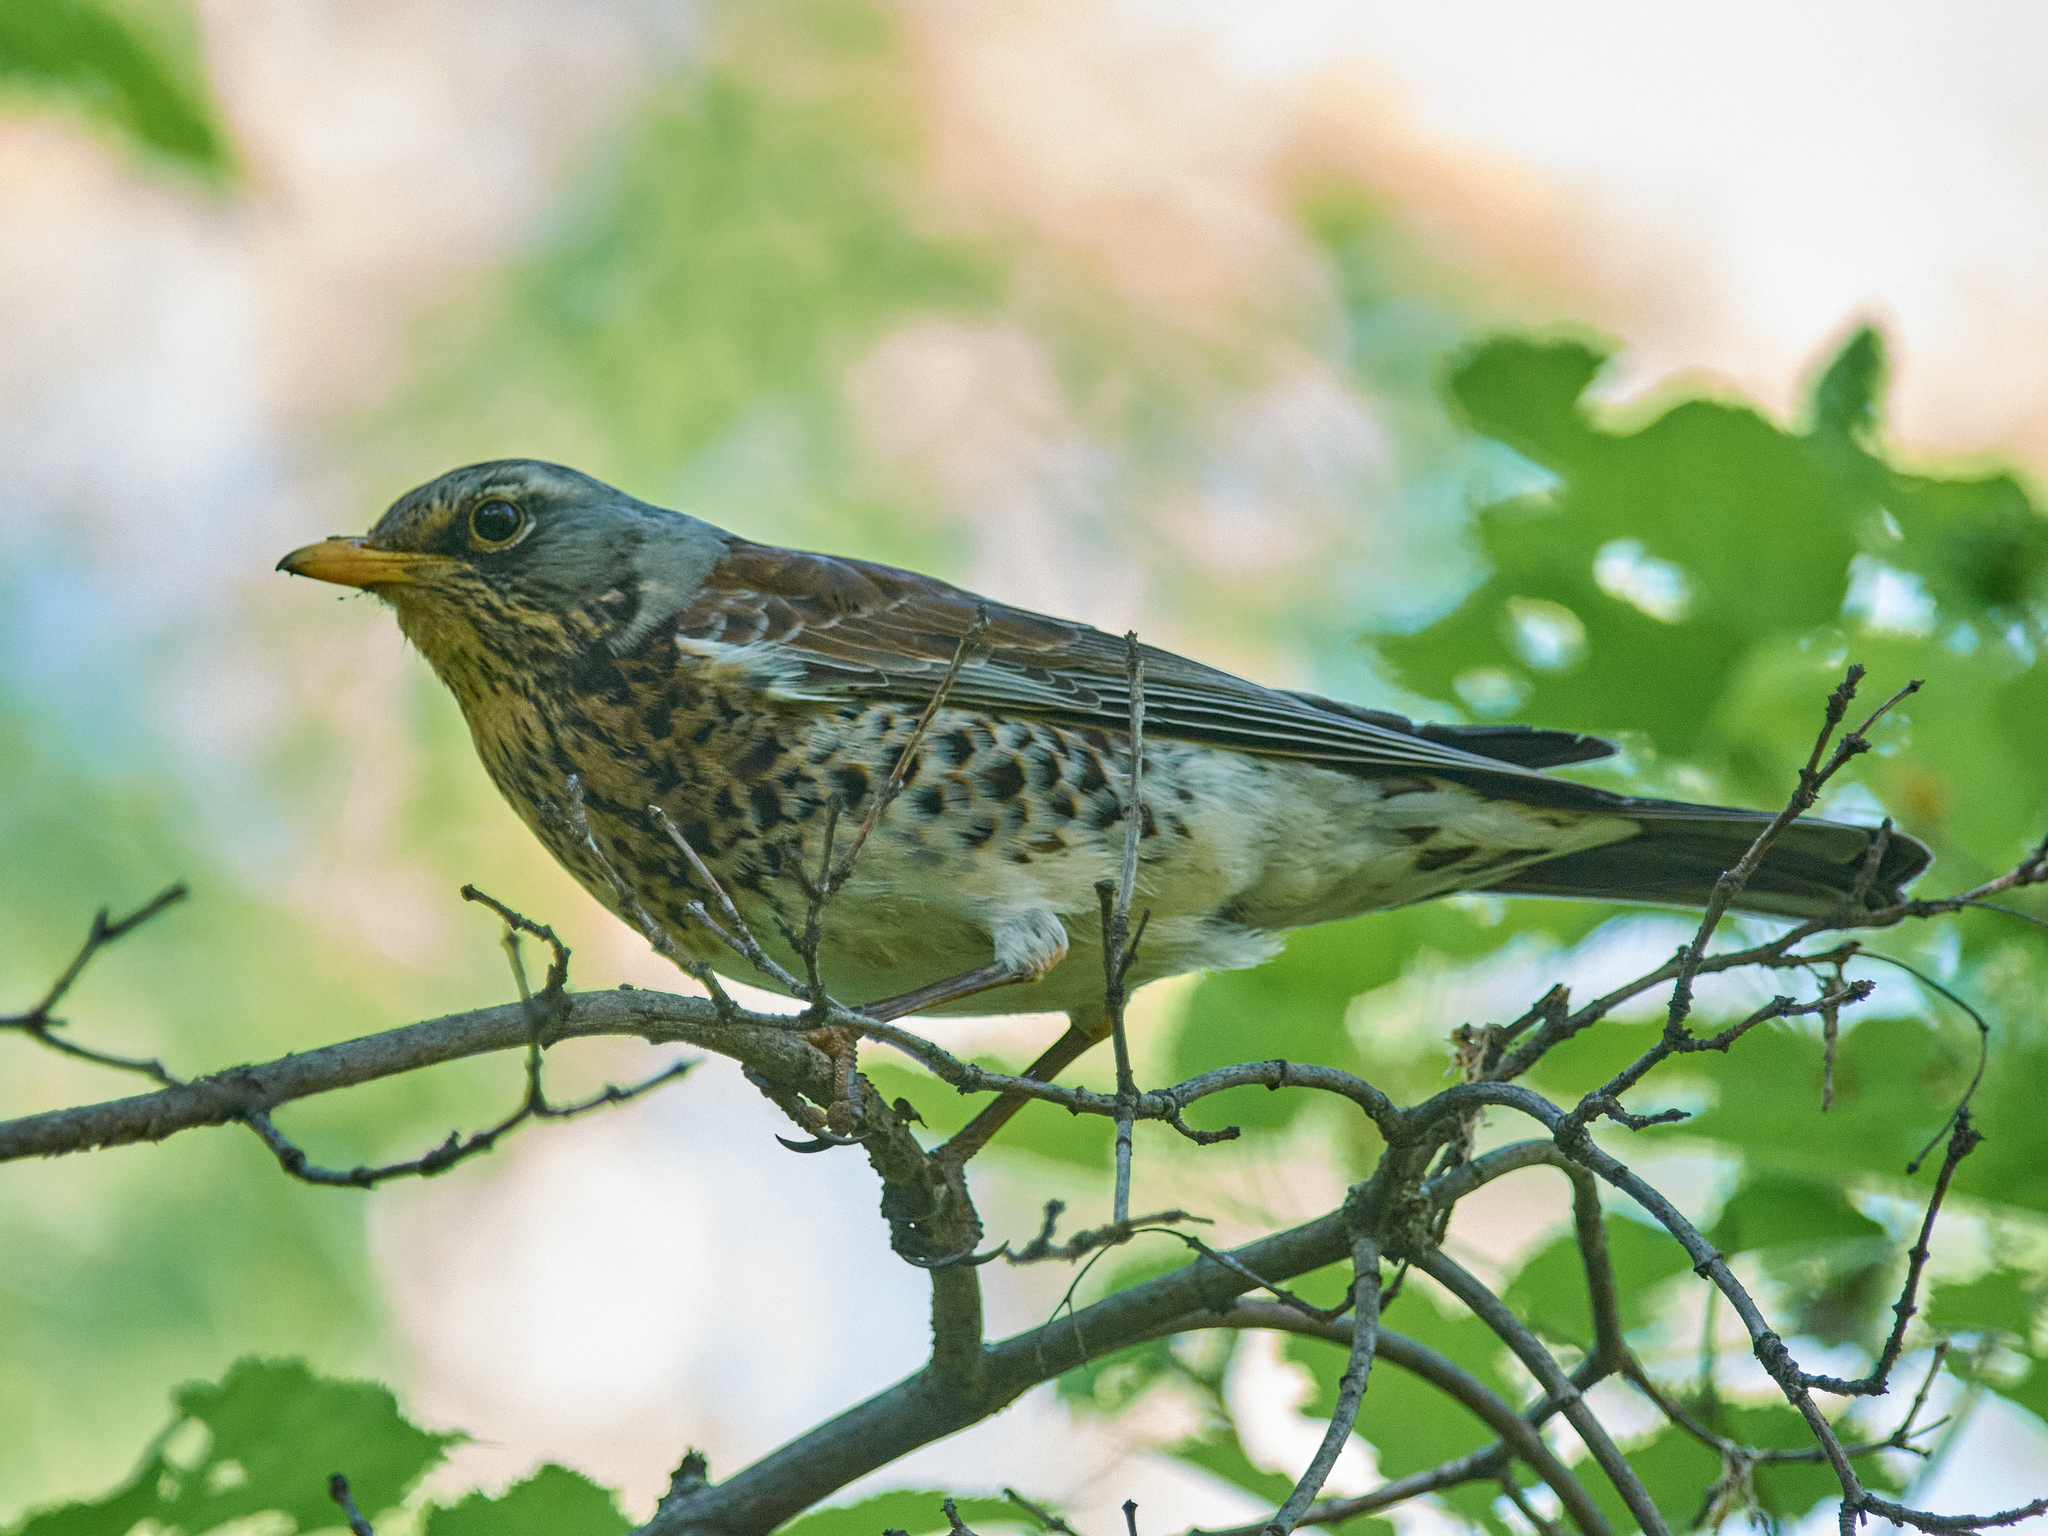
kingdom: Animalia
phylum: Chordata
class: Aves
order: Passeriformes
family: Turdidae
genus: Turdus
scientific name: Turdus pilaris
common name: Fieldfare
